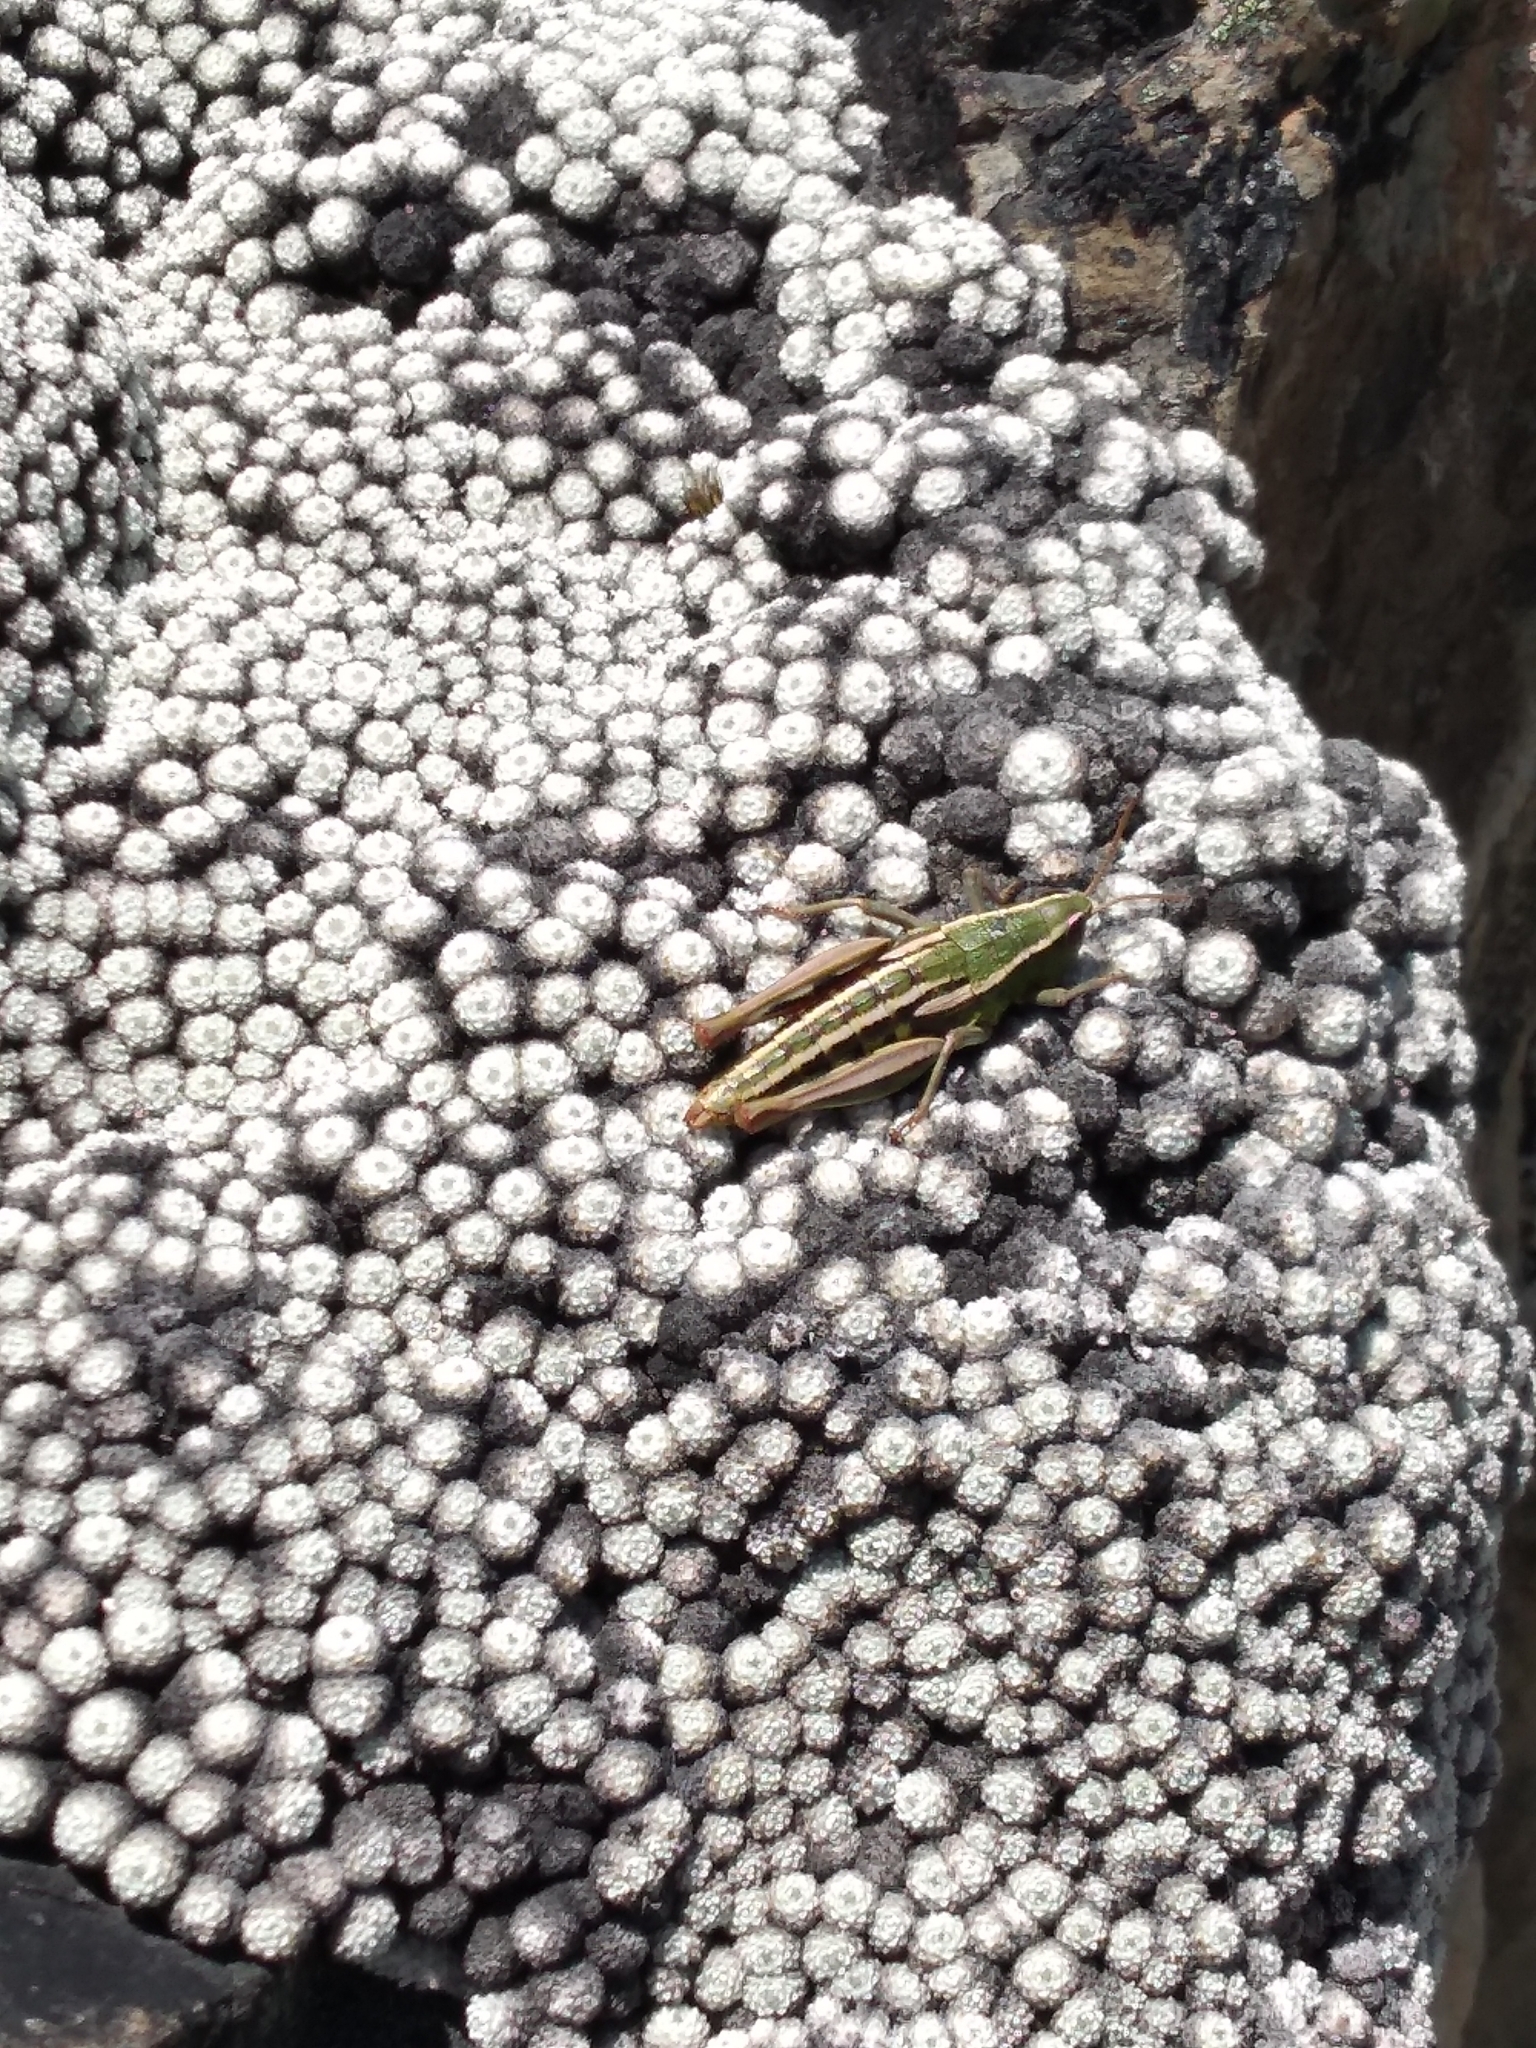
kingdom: Animalia
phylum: Arthropoda
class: Insecta
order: Orthoptera
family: Acrididae
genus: Sigaus
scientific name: Sigaus
